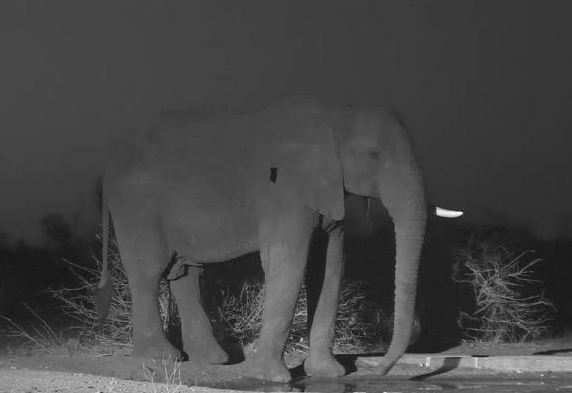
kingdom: Animalia
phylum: Chordata
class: Mammalia
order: Proboscidea
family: Elephantidae
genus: Loxodonta
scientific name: Loxodonta africana
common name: African elephant
